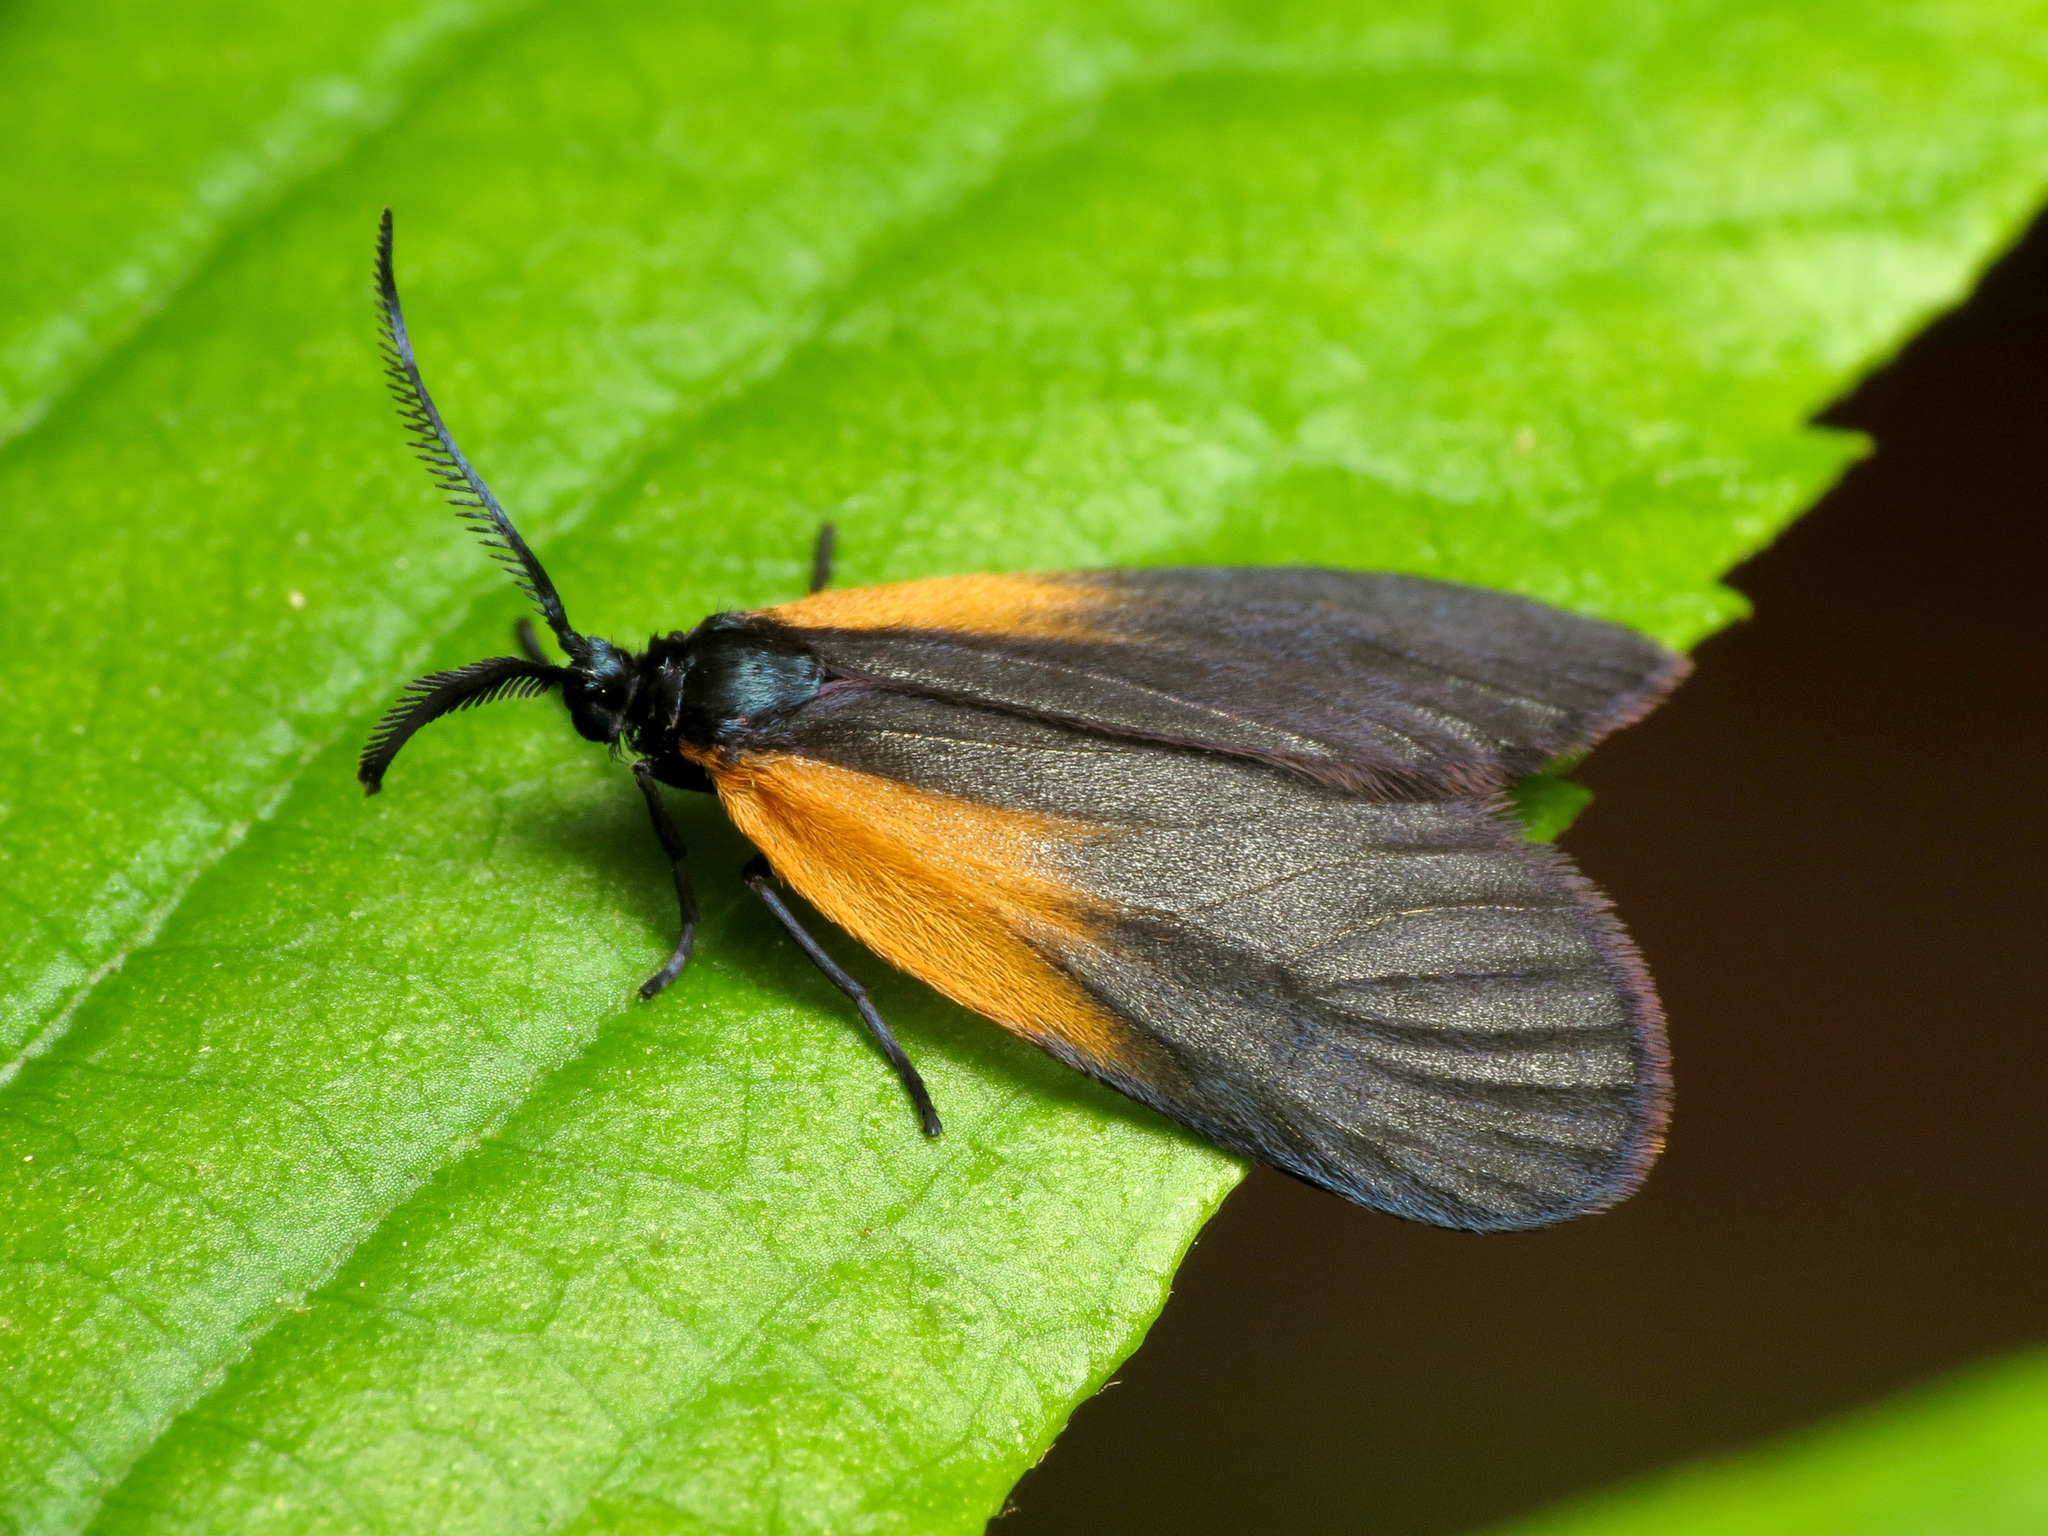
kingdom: Animalia
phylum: Arthropoda
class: Insecta
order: Lepidoptera
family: Zygaenidae
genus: Malthaca
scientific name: Malthaca dimidiata
